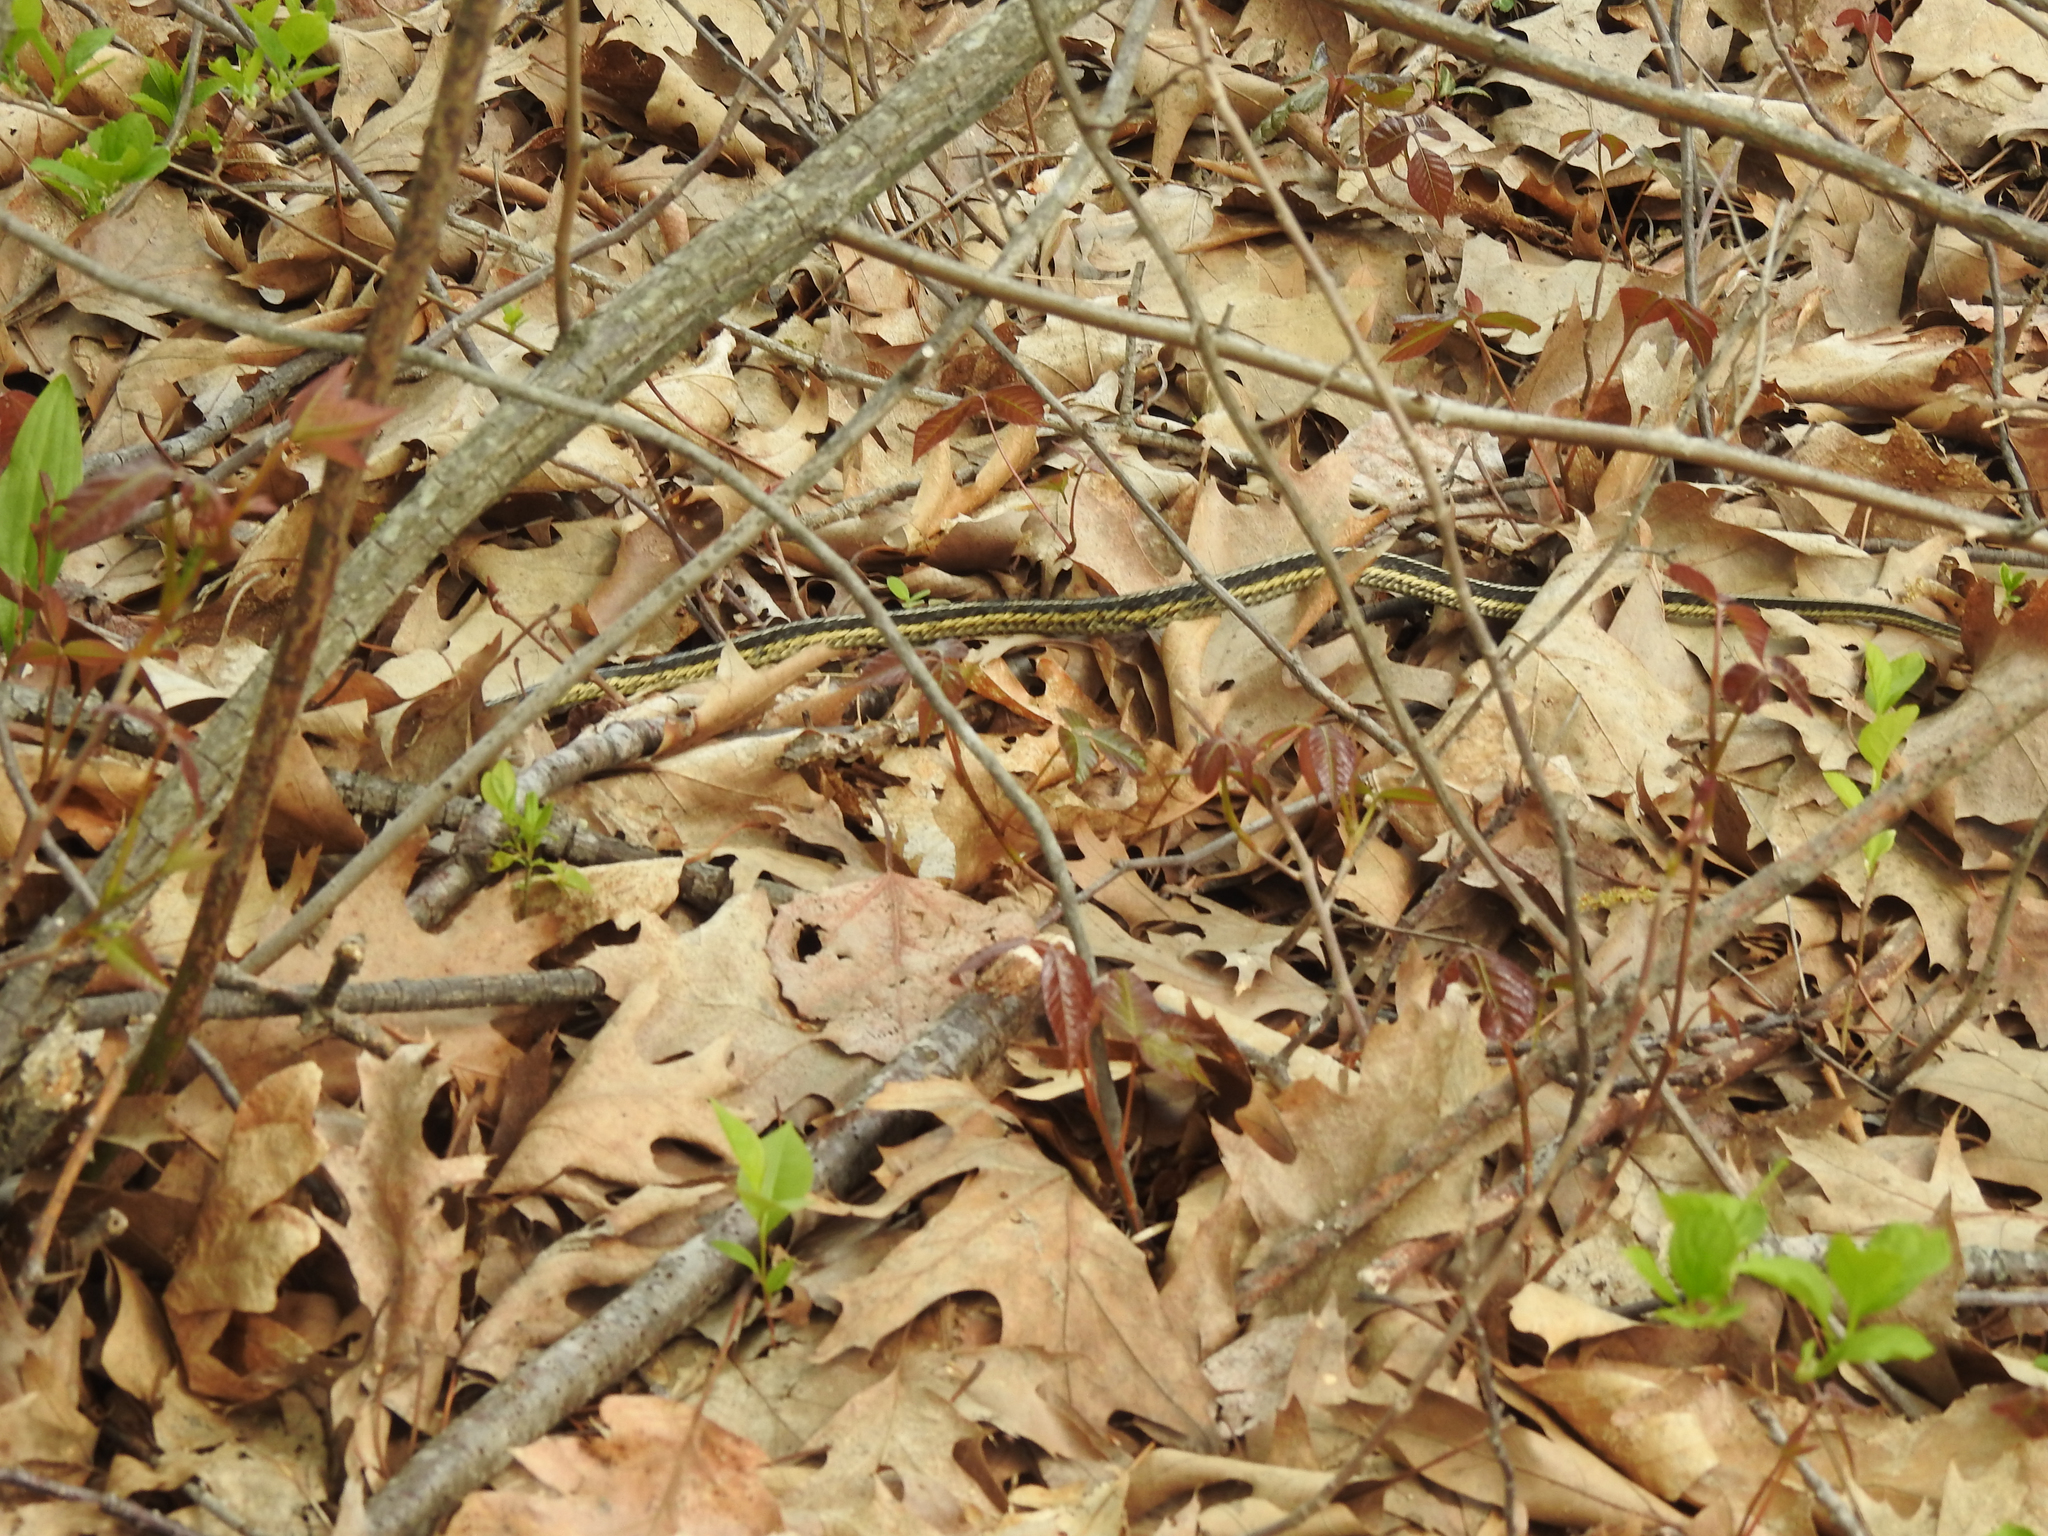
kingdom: Animalia
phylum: Chordata
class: Squamata
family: Colubridae
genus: Thamnophis
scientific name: Thamnophis sirtalis
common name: Common garter snake
